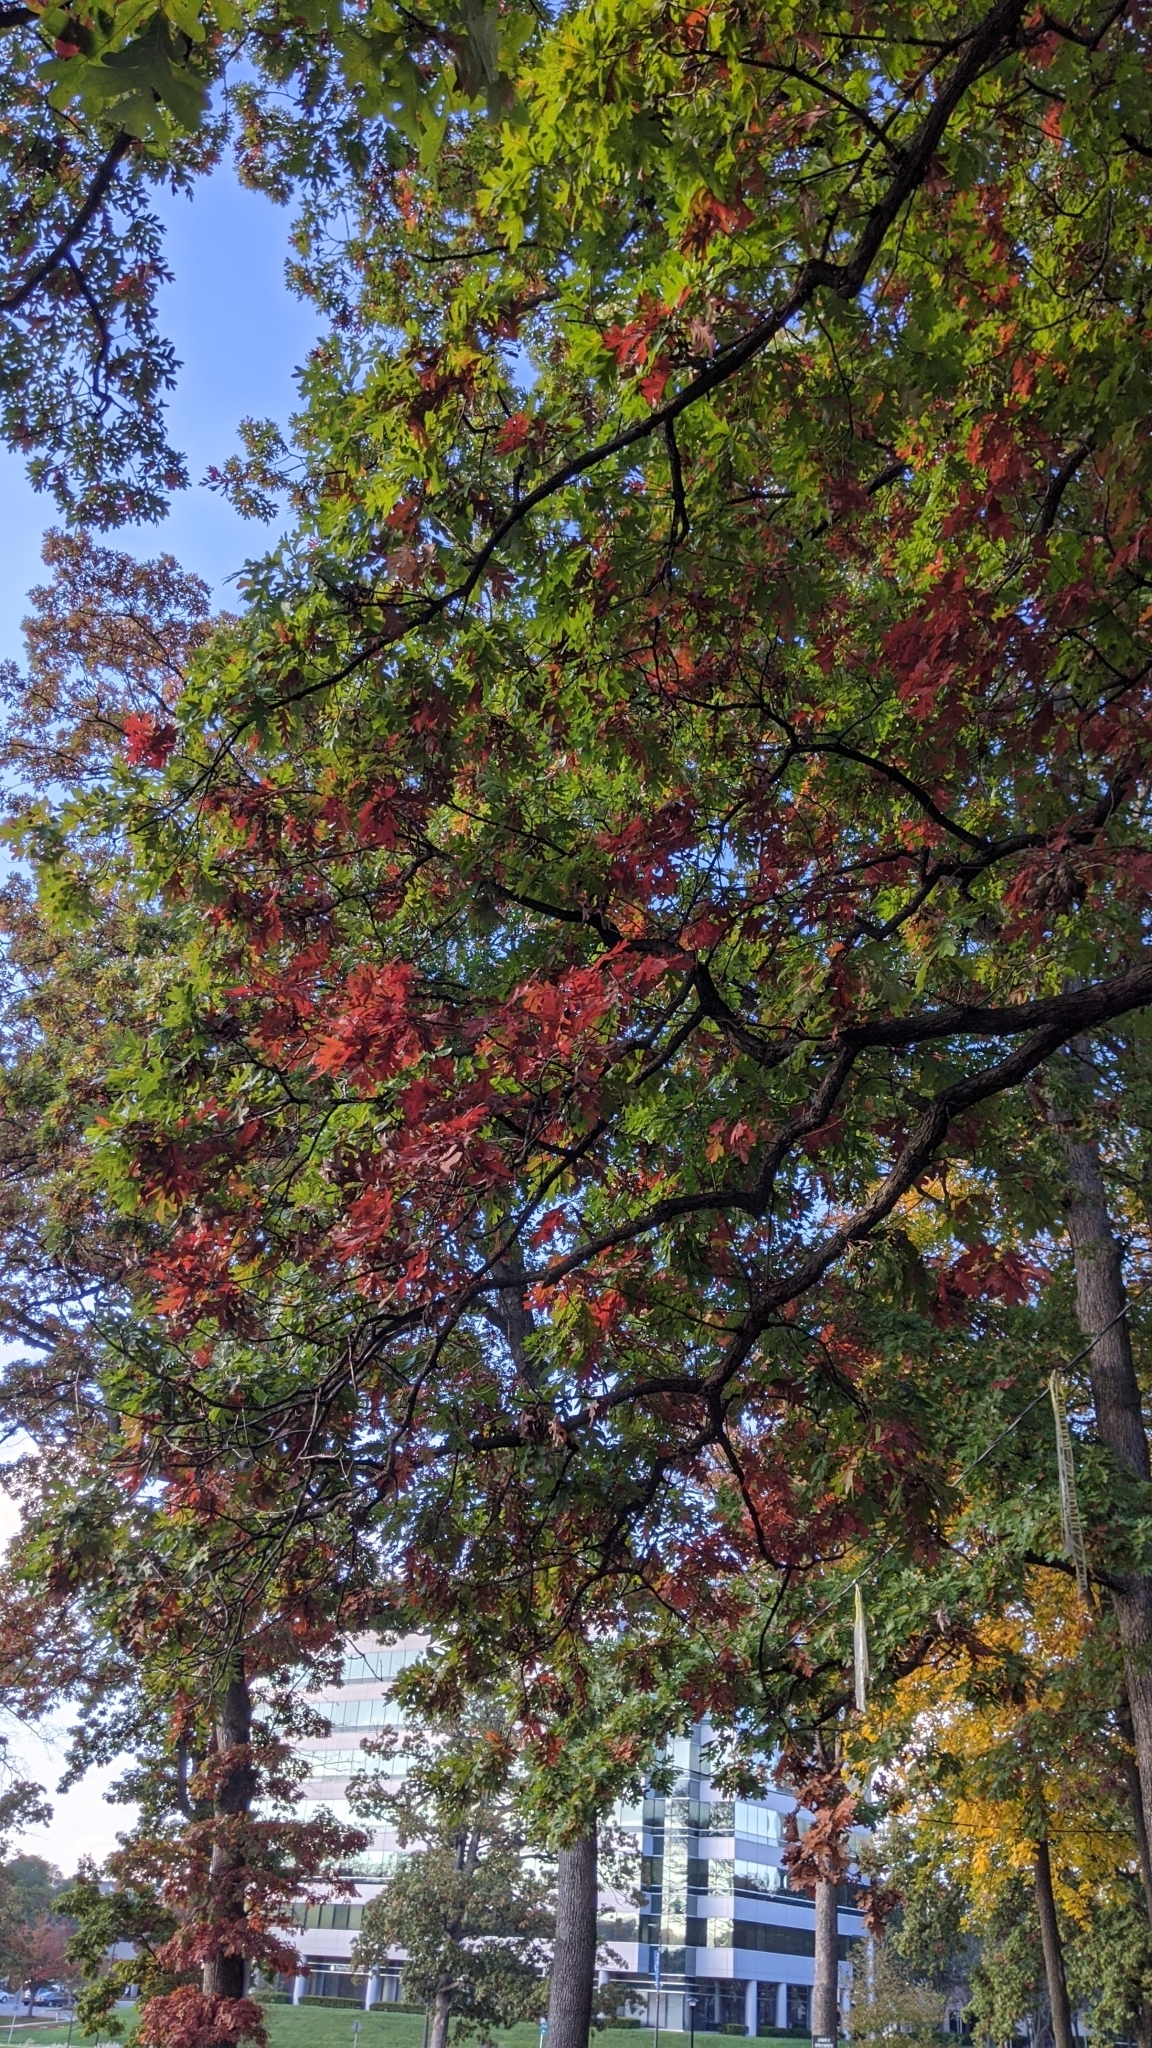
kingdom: Plantae
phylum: Tracheophyta
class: Magnoliopsida
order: Fagales
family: Fagaceae
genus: Quercus
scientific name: Quercus alba
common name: White oak
